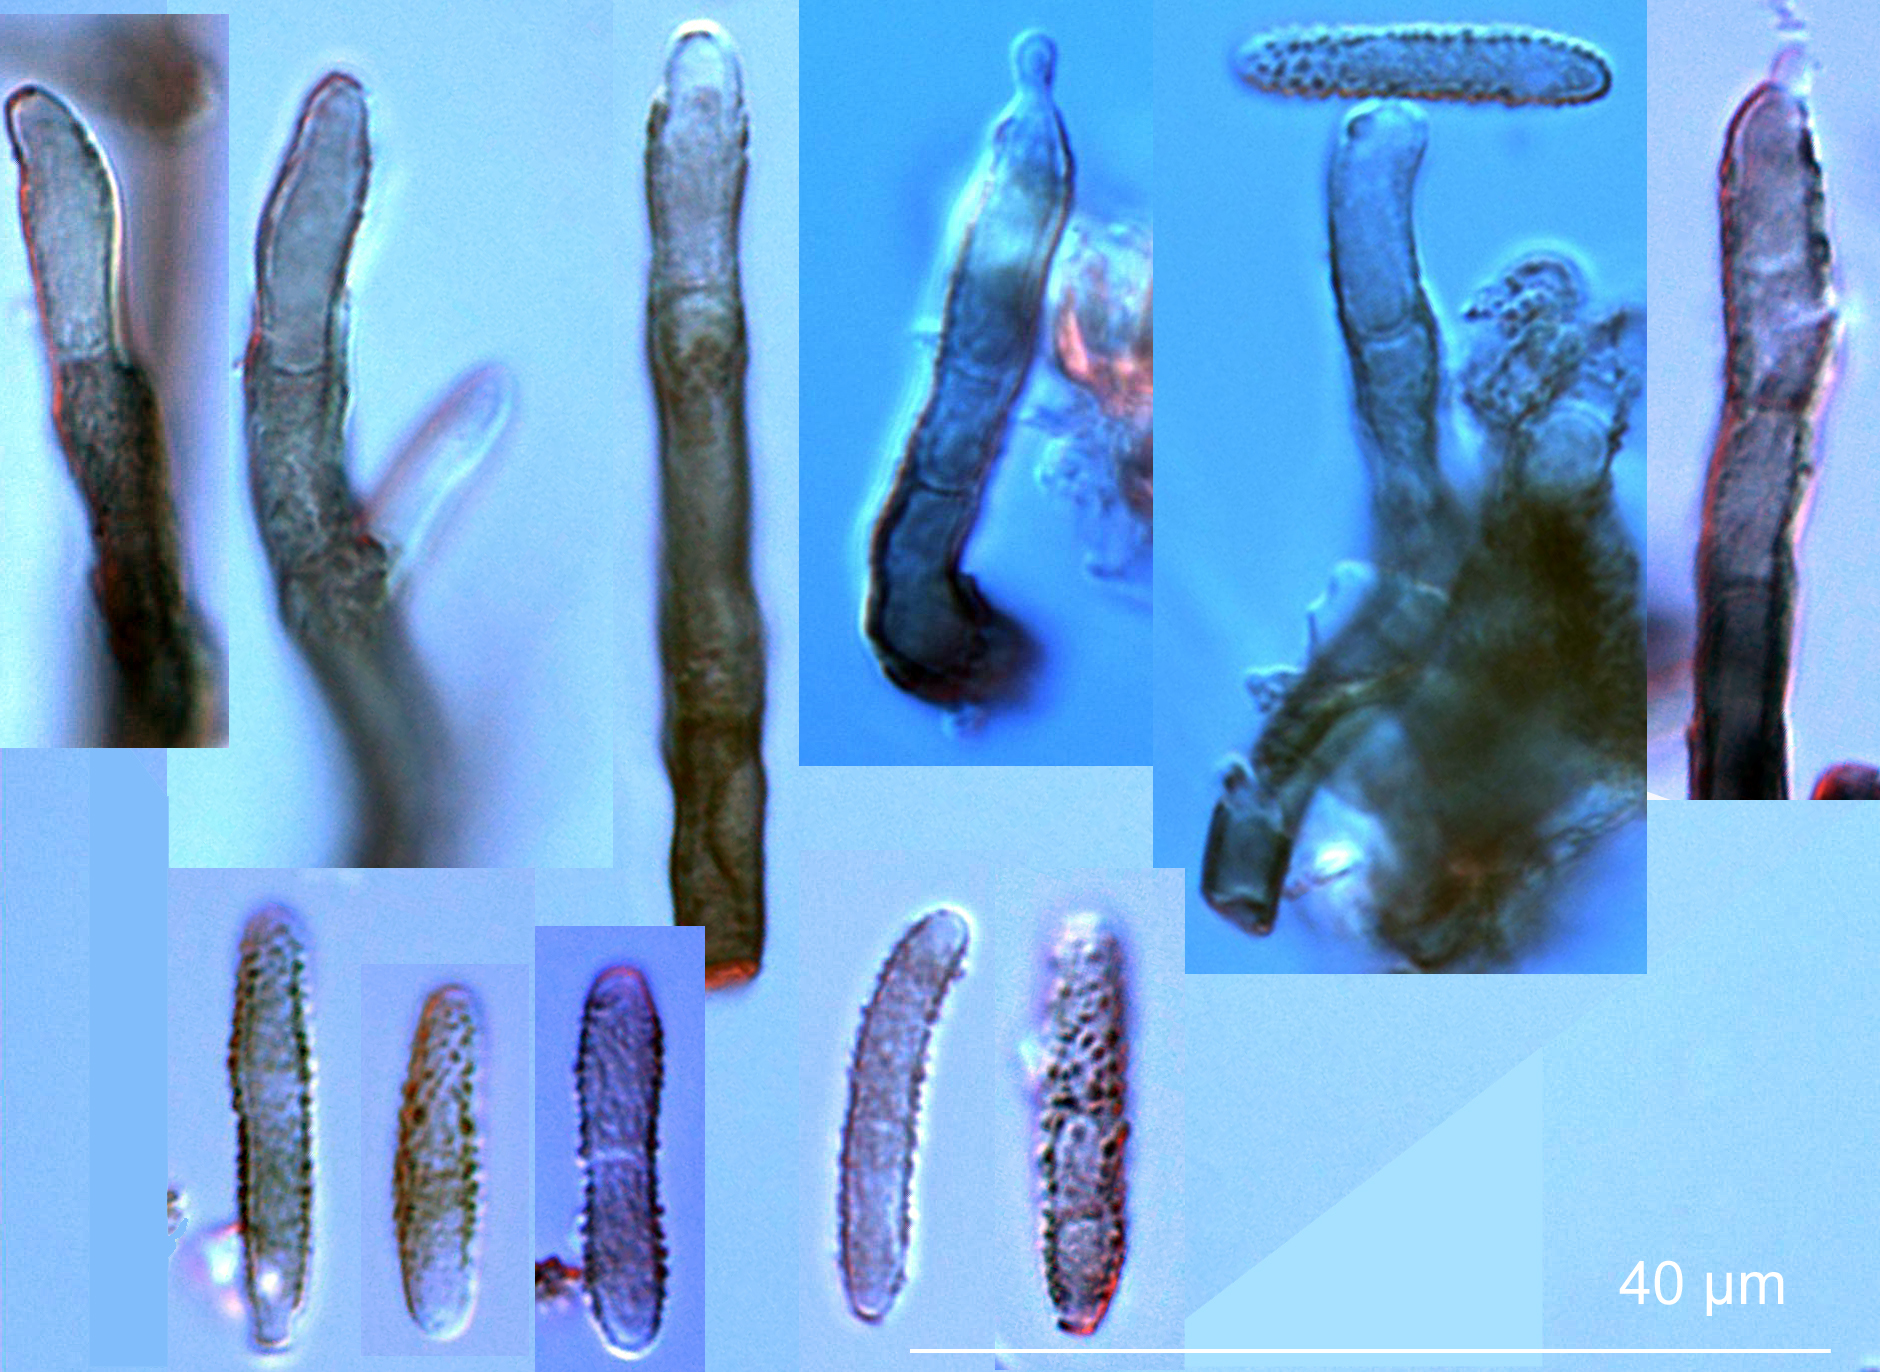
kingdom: Fungi
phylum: Ascomycota
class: Dothideomycetes
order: Mycosphaerellales
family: Mycosphaerellaceae
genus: Zasmidium
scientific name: Zasmidium
